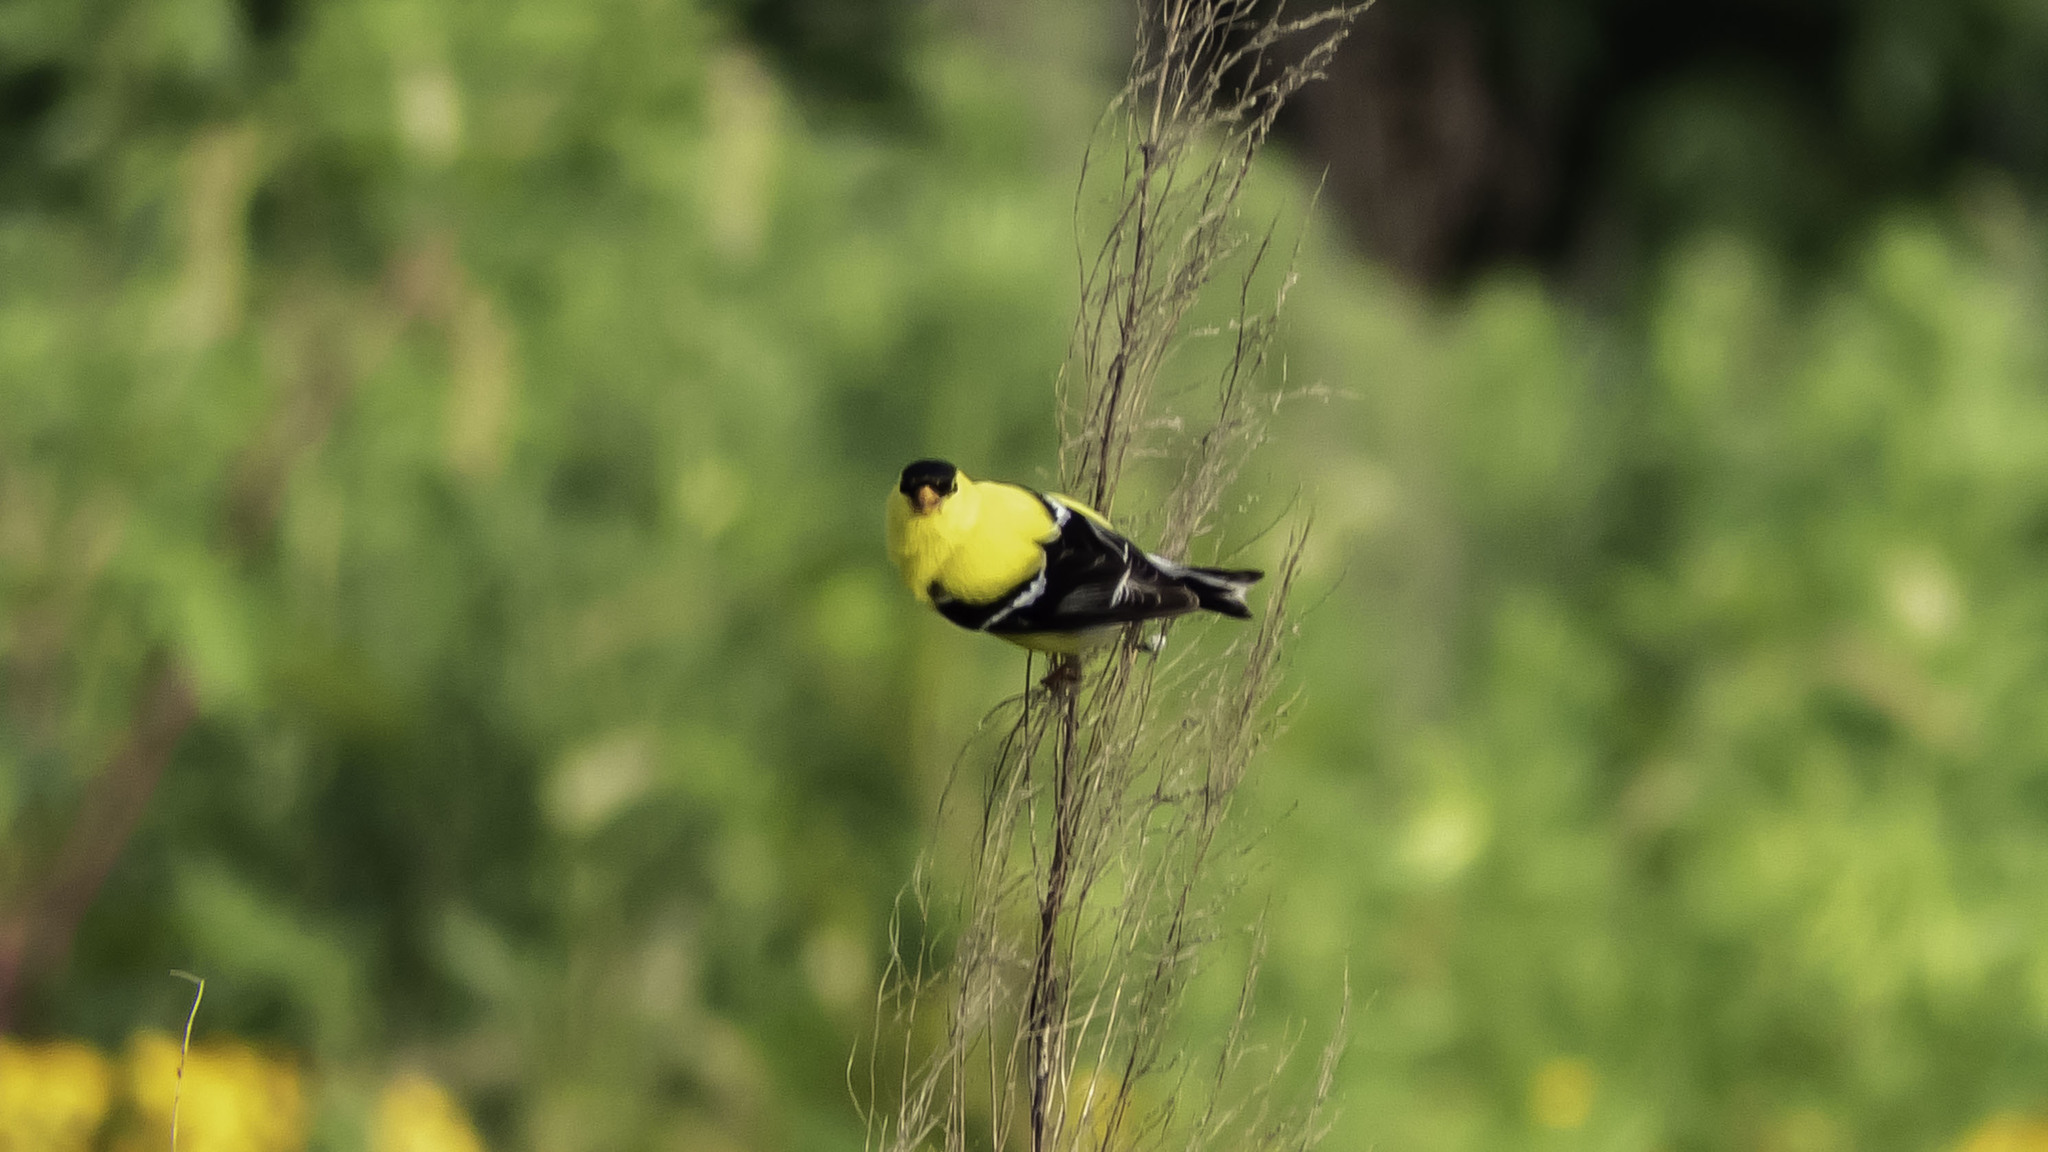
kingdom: Animalia
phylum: Chordata
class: Aves
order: Passeriformes
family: Fringillidae
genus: Spinus
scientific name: Spinus tristis
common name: American goldfinch
